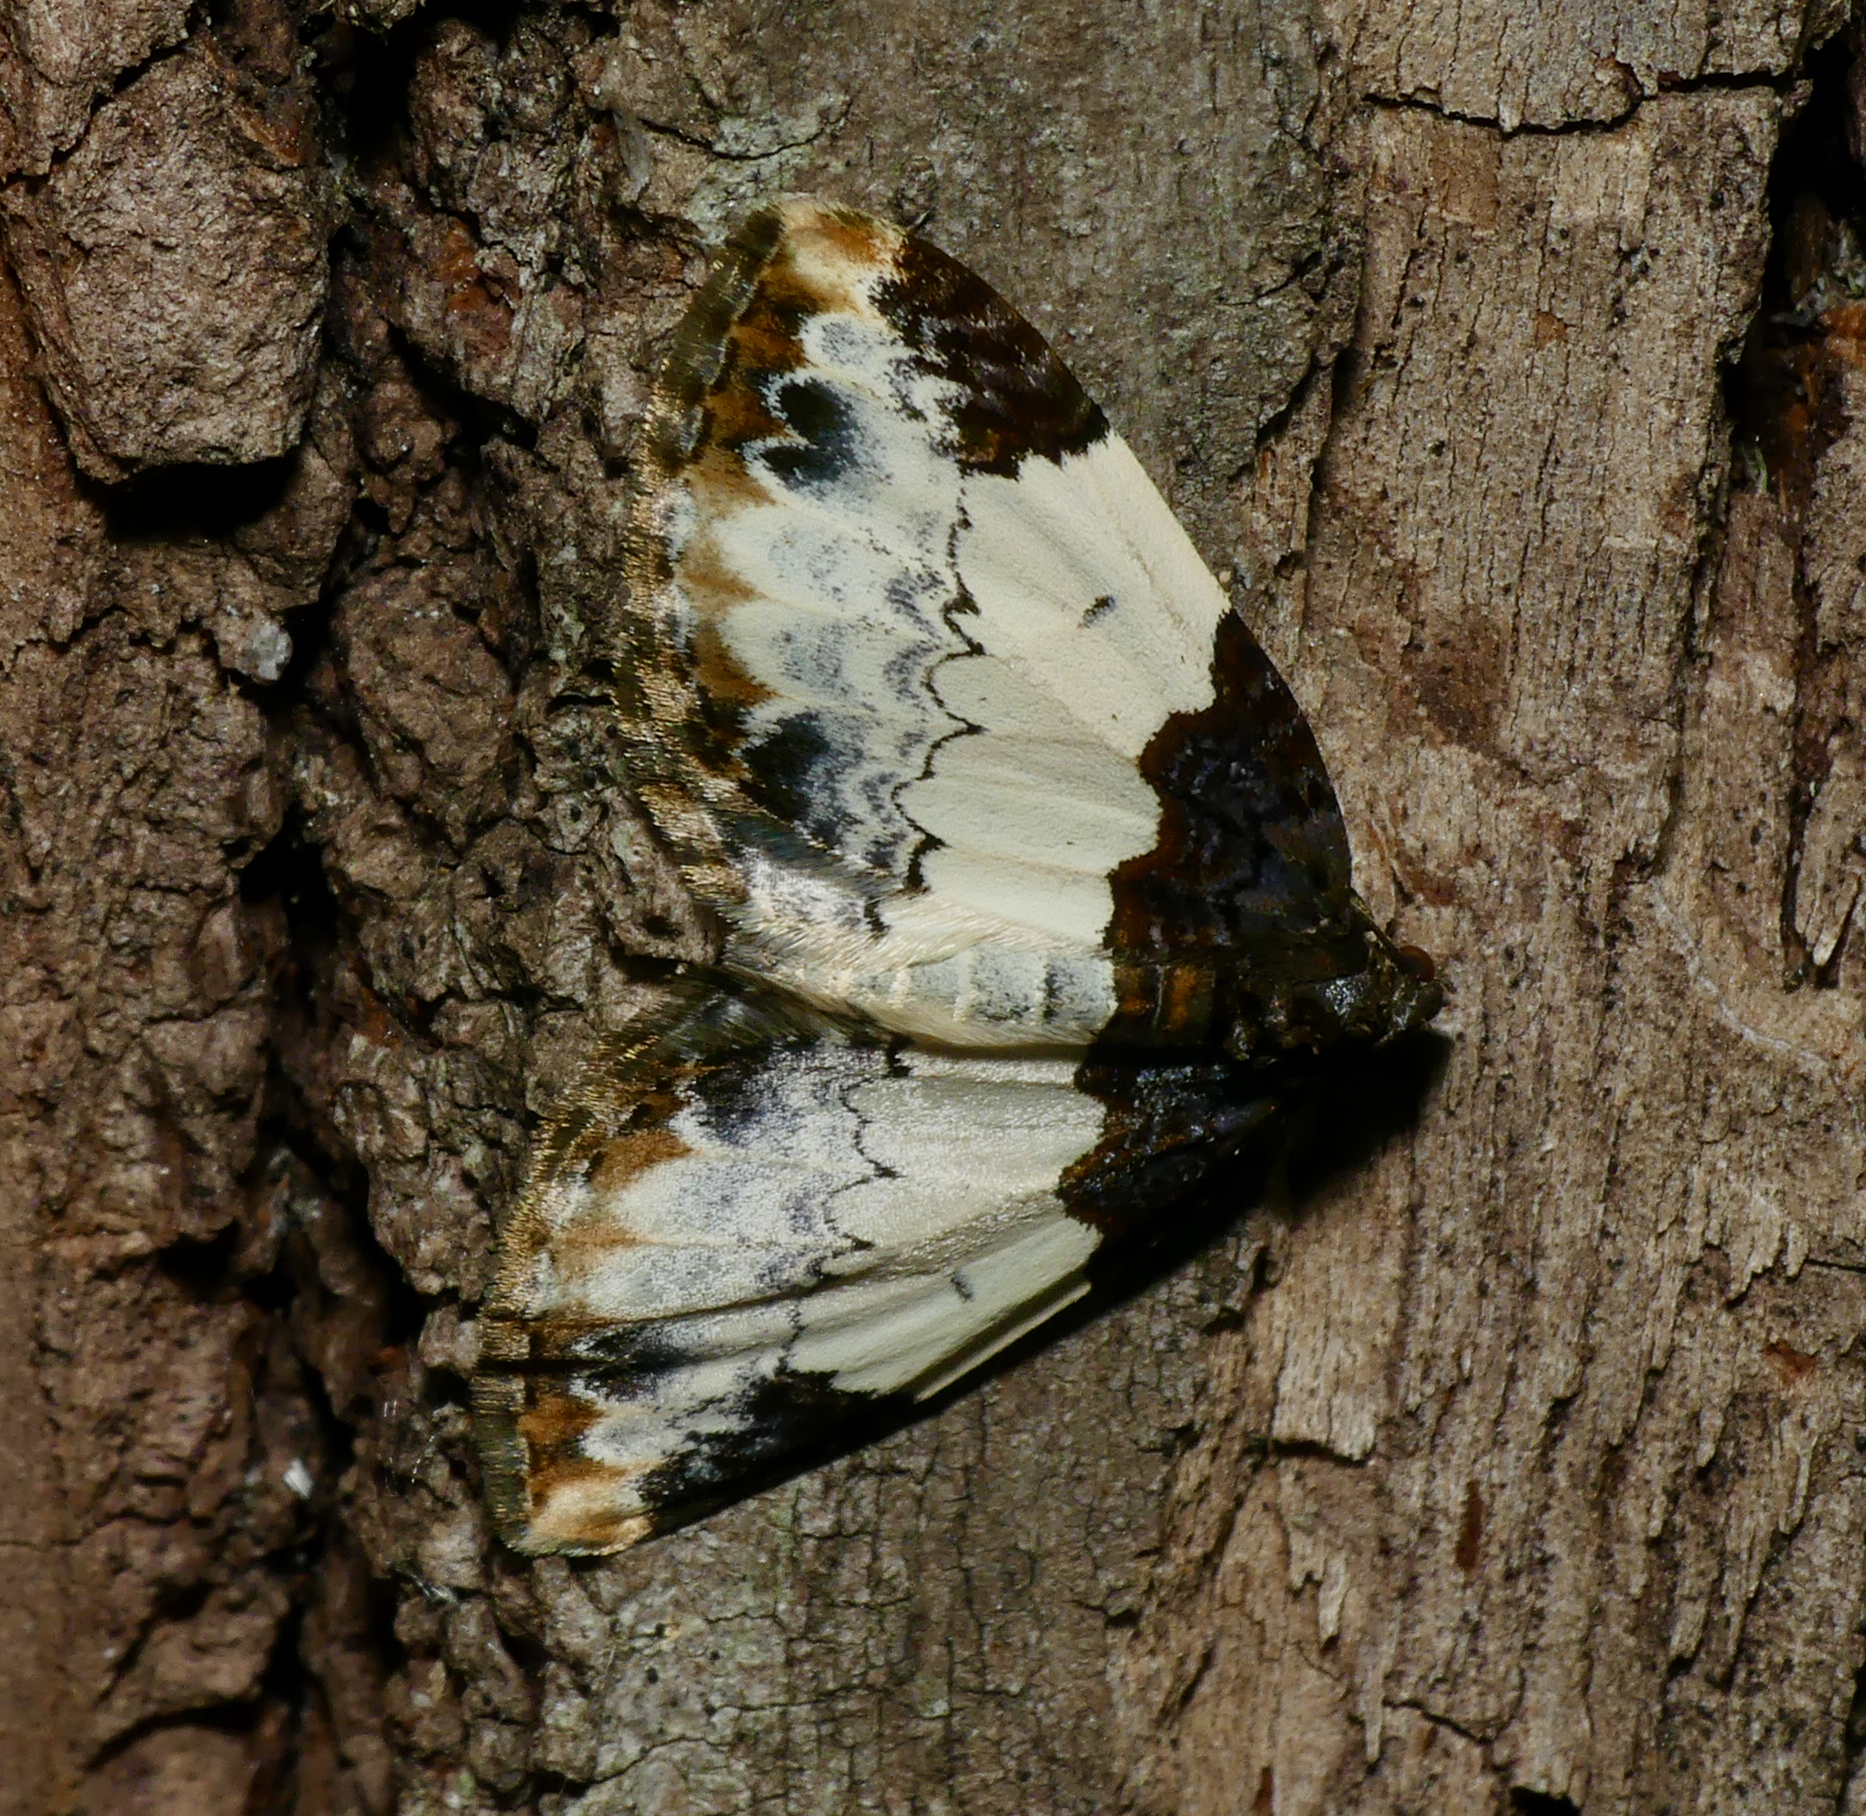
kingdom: Animalia
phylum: Arthropoda
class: Insecta
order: Lepidoptera
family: Geometridae
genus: Mesoleuca
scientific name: Mesoleuca ruficillata
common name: White-ribboned carpet moth
